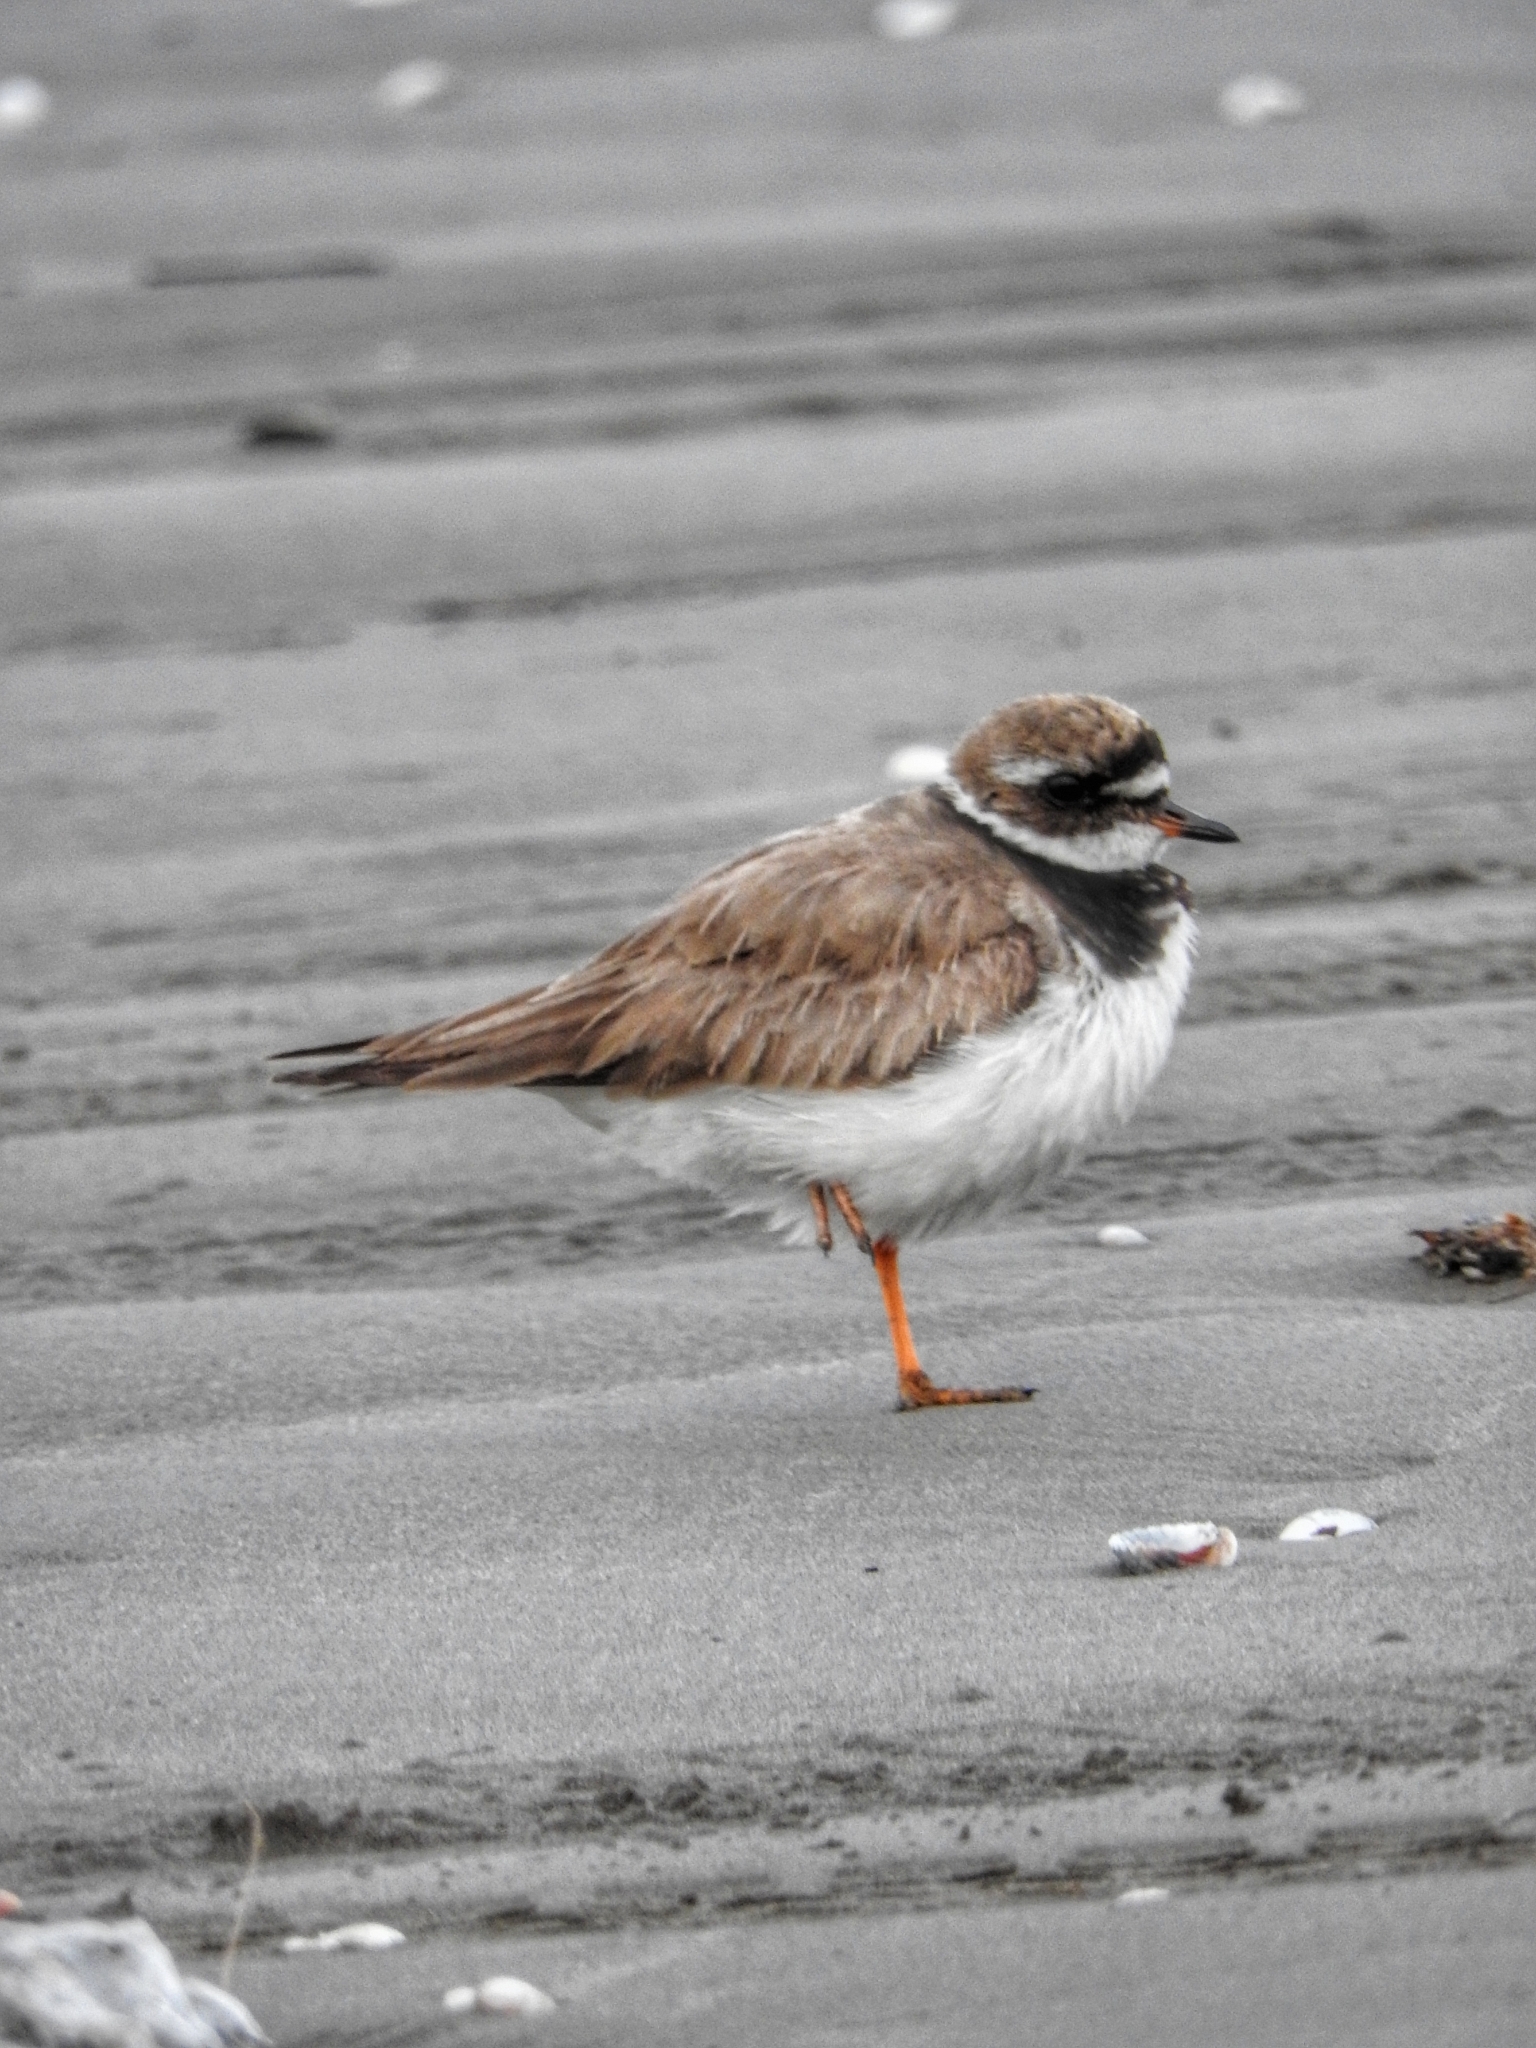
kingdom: Animalia
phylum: Chordata
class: Aves
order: Charadriiformes
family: Charadriidae
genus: Charadrius
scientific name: Charadrius hiaticula
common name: Common ringed plover
